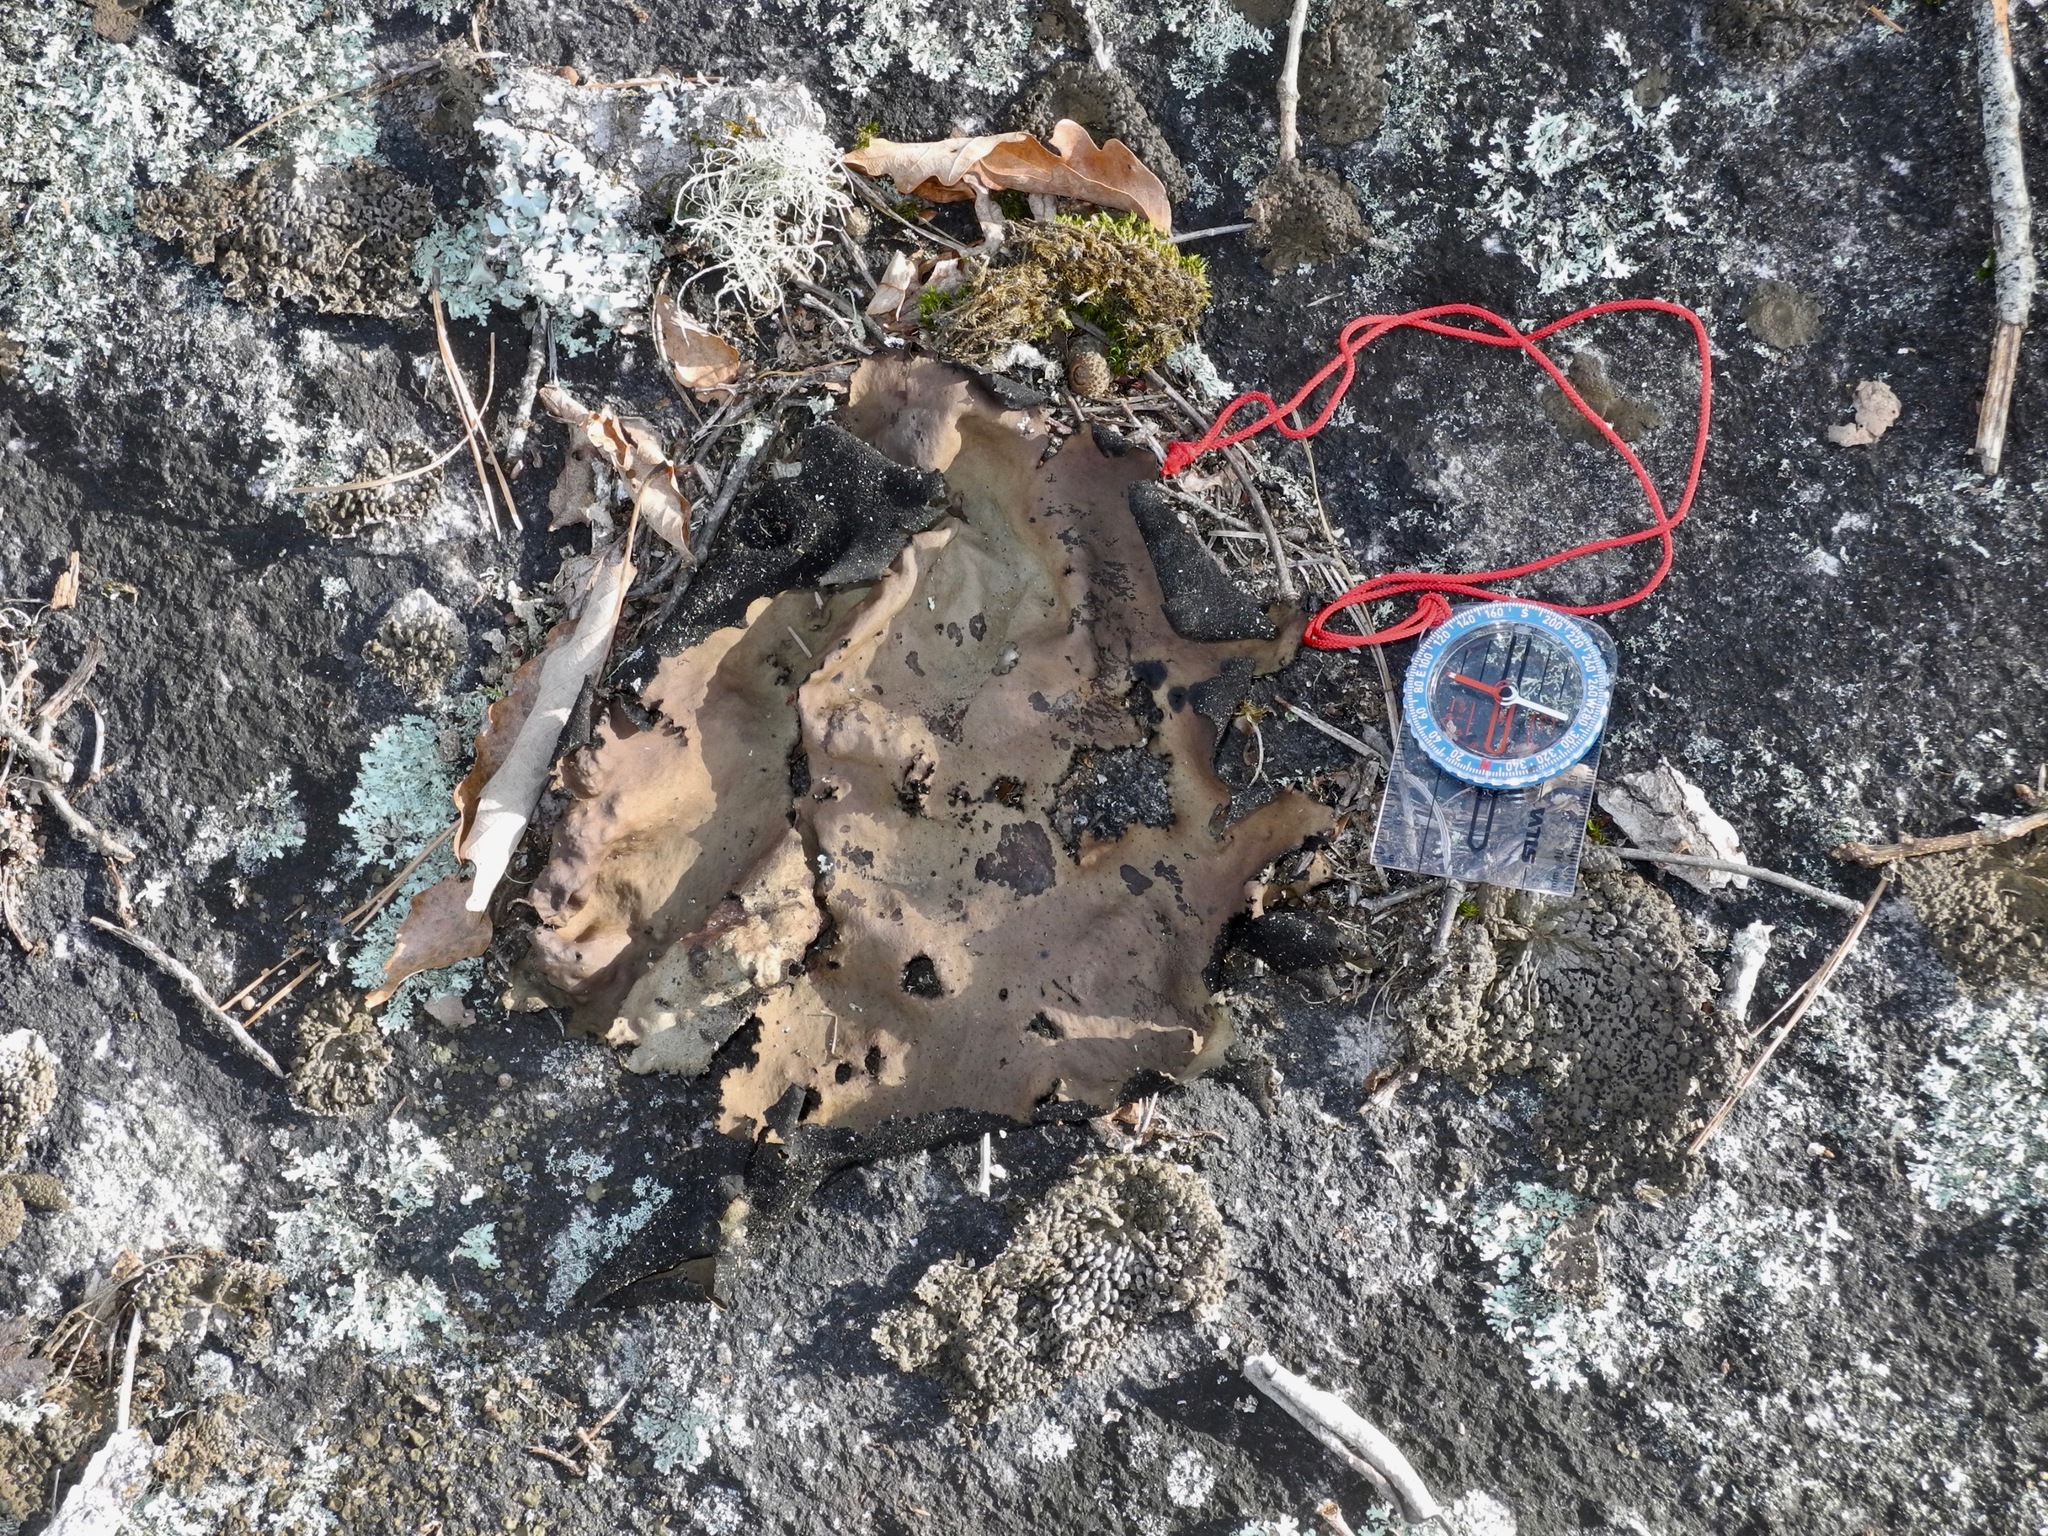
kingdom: Fungi
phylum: Ascomycota
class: Lecanoromycetes
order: Umbilicariales
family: Umbilicariaceae
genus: Umbilicaria
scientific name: Umbilicaria mammulata
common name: Smooth rock tripe
